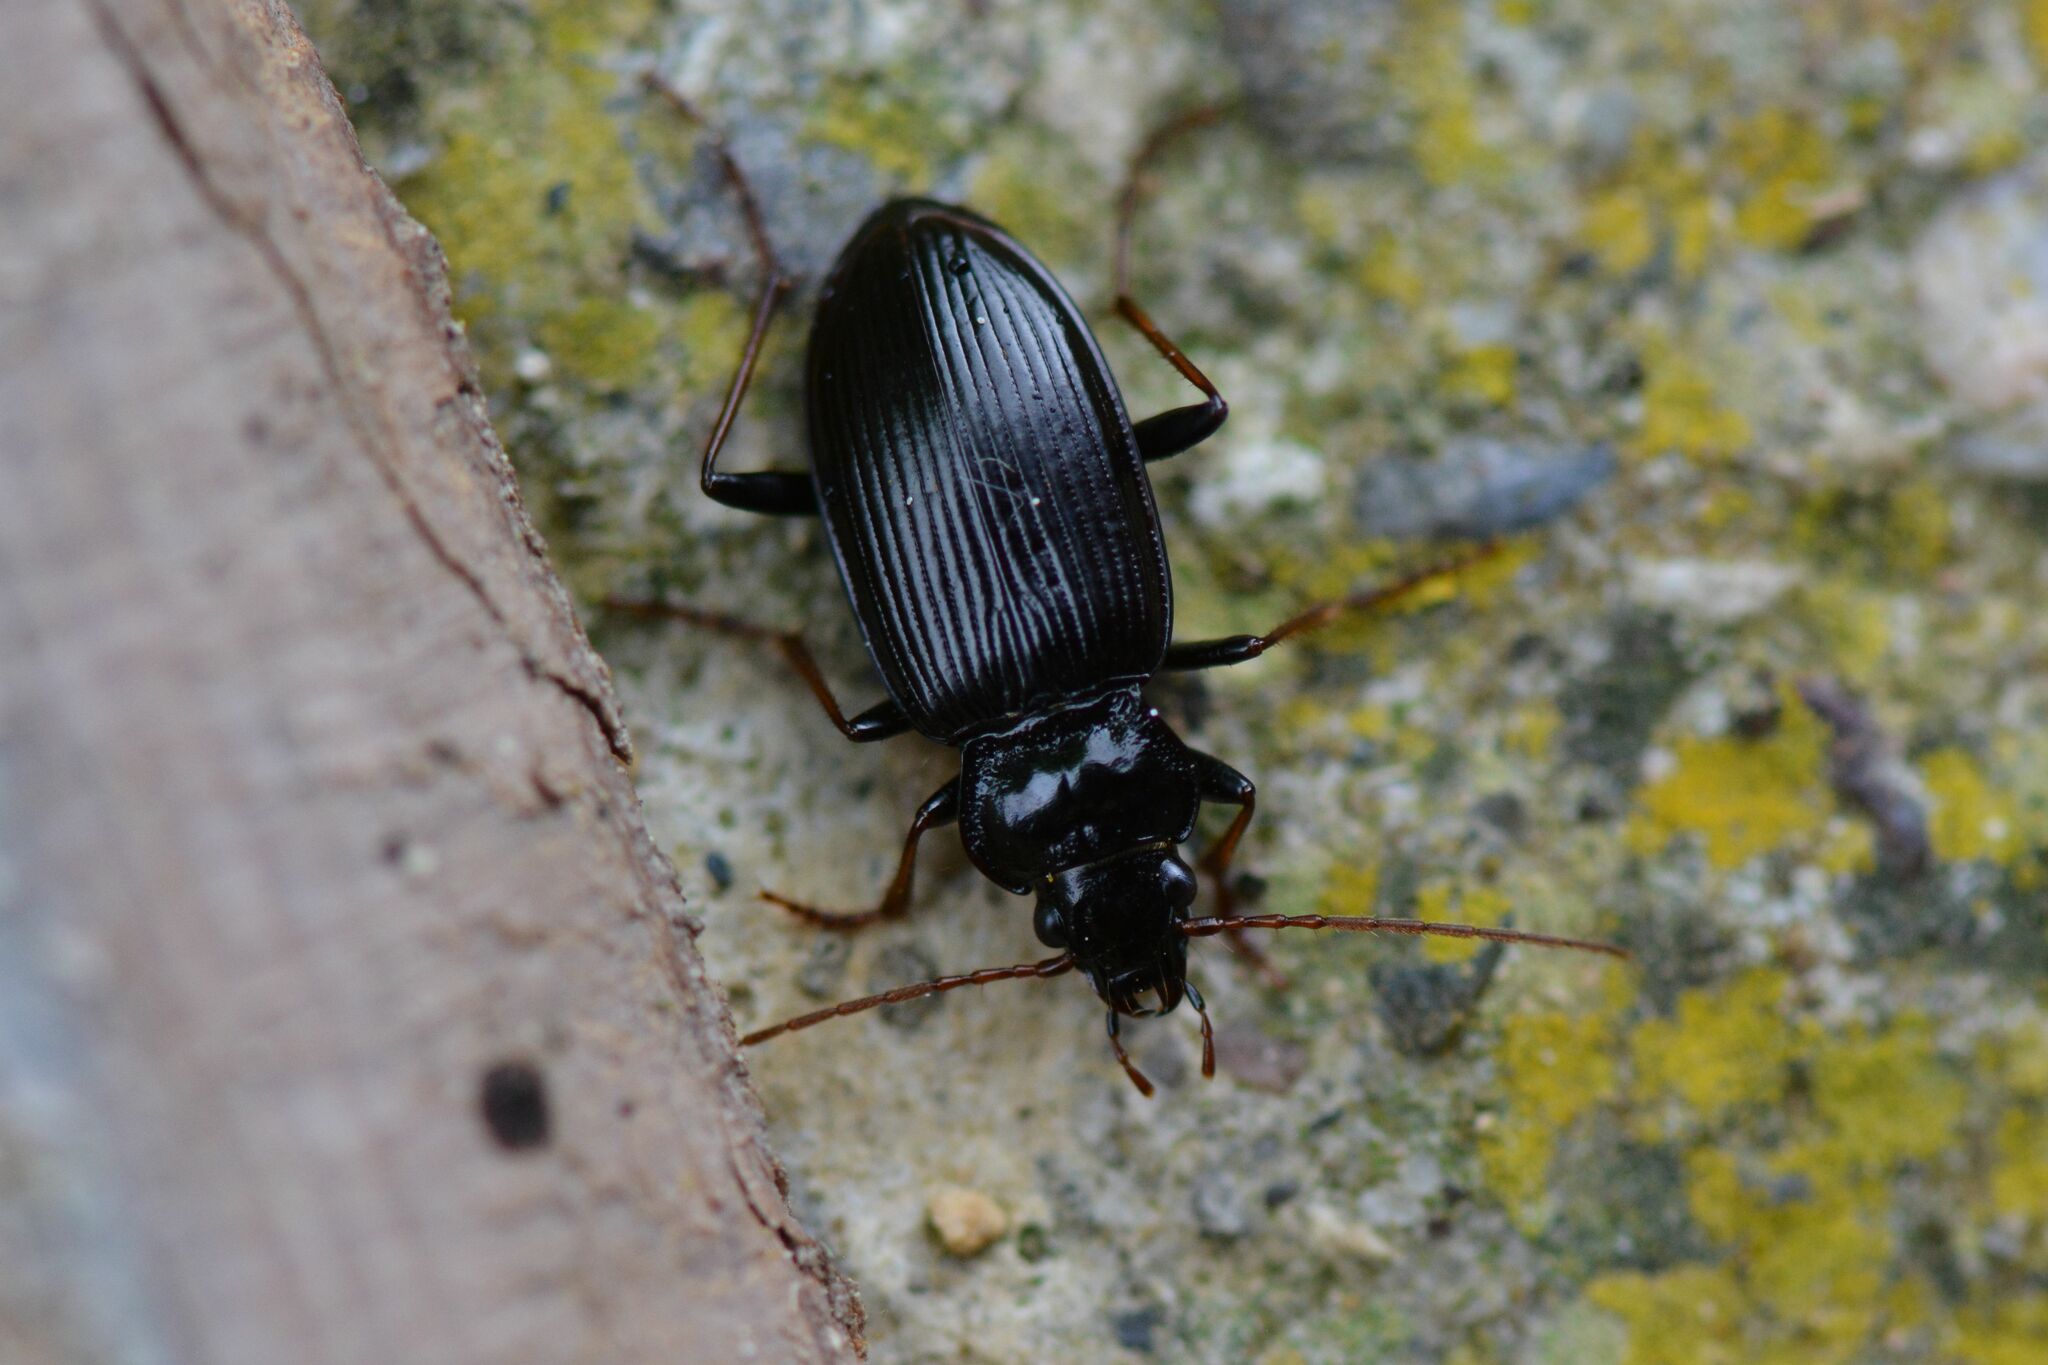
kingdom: Animalia
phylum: Arthropoda
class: Insecta
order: Coleoptera
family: Carabidae
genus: Nebria
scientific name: Nebria salina
